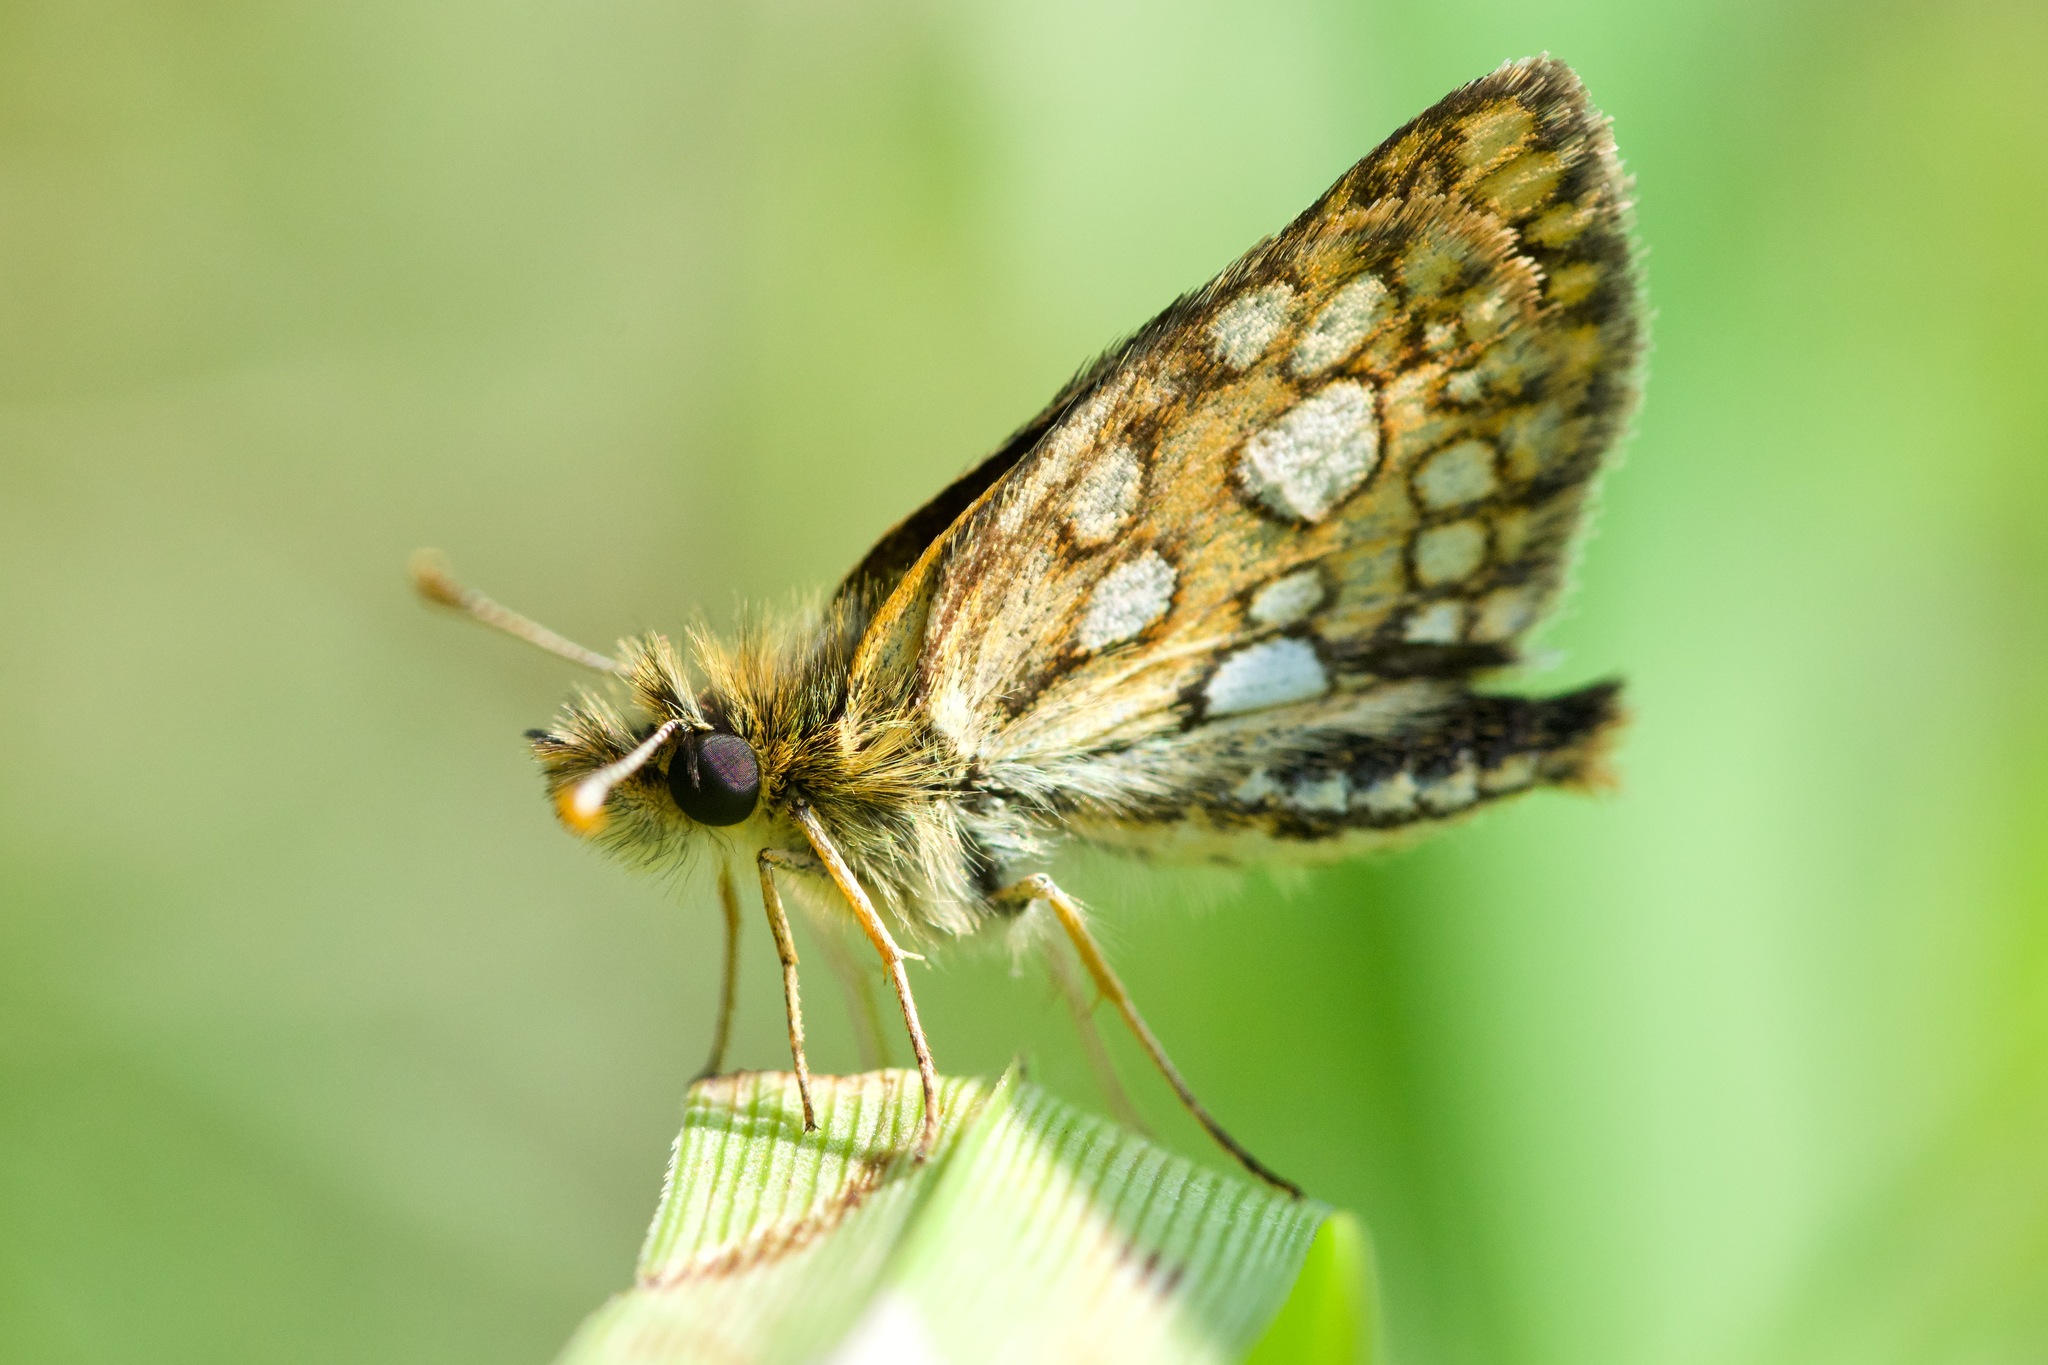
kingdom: Animalia
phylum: Arthropoda
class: Insecta
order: Lepidoptera
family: Hesperiidae
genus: Carterocephalus
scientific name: Carterocephalus mandan
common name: Arctic skipperling
